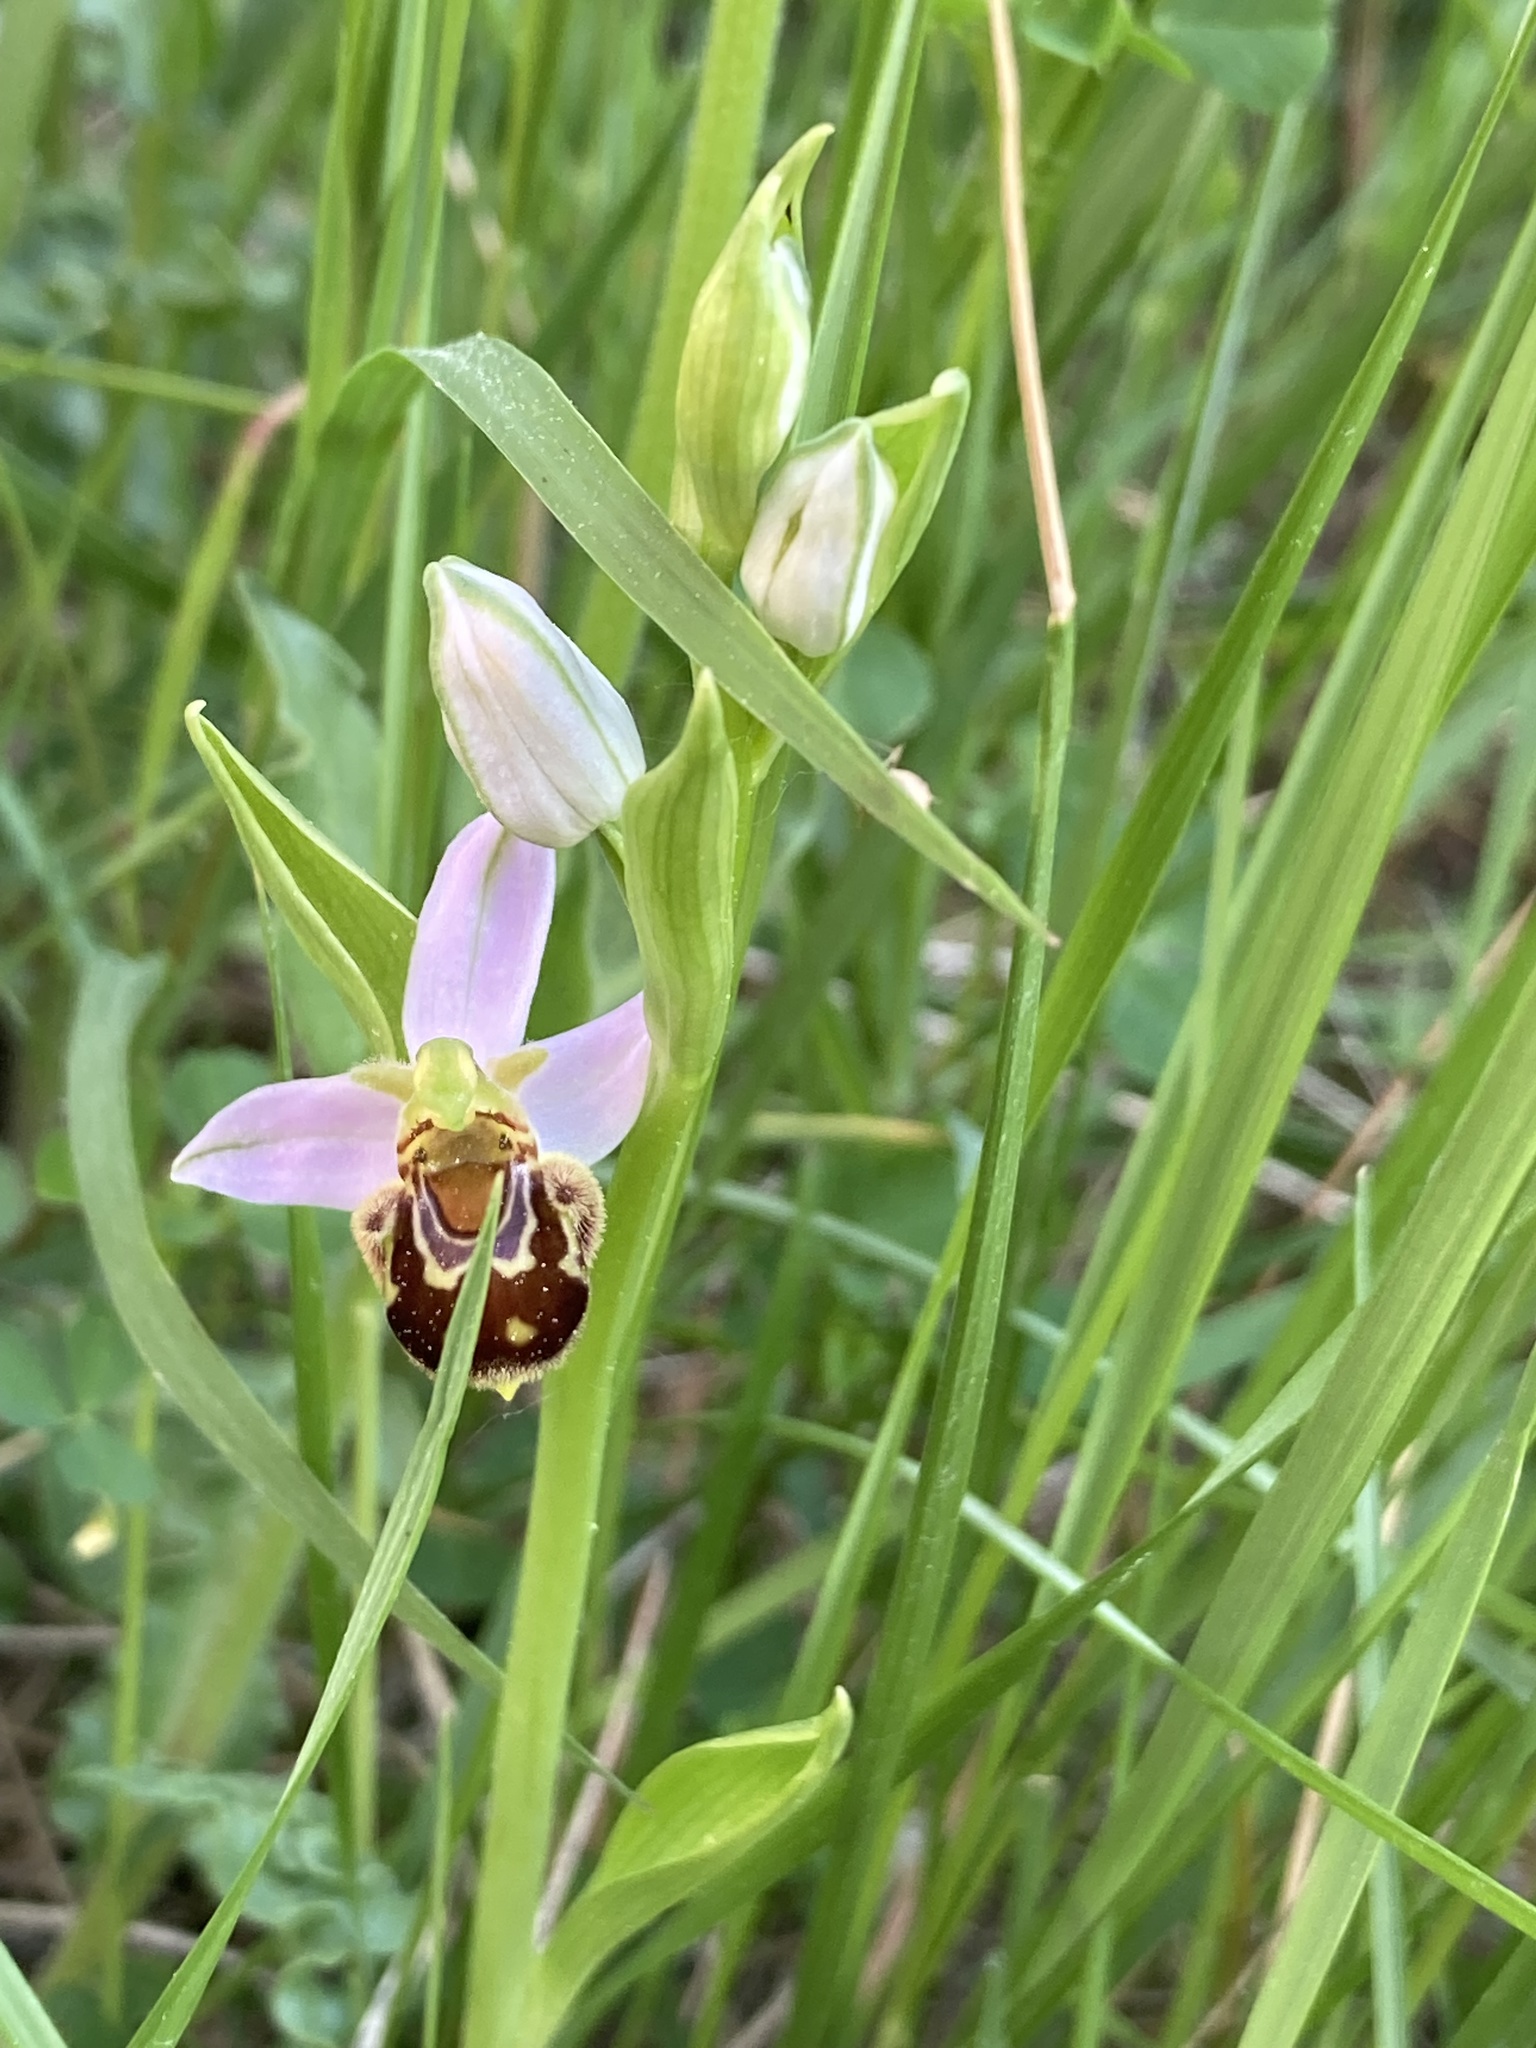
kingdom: Plantae
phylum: Tracheophyta
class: Liliopsida
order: Asparagales
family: Orchidaceae
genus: Ophrys
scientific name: Ophrys apifera
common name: Bee orchid
